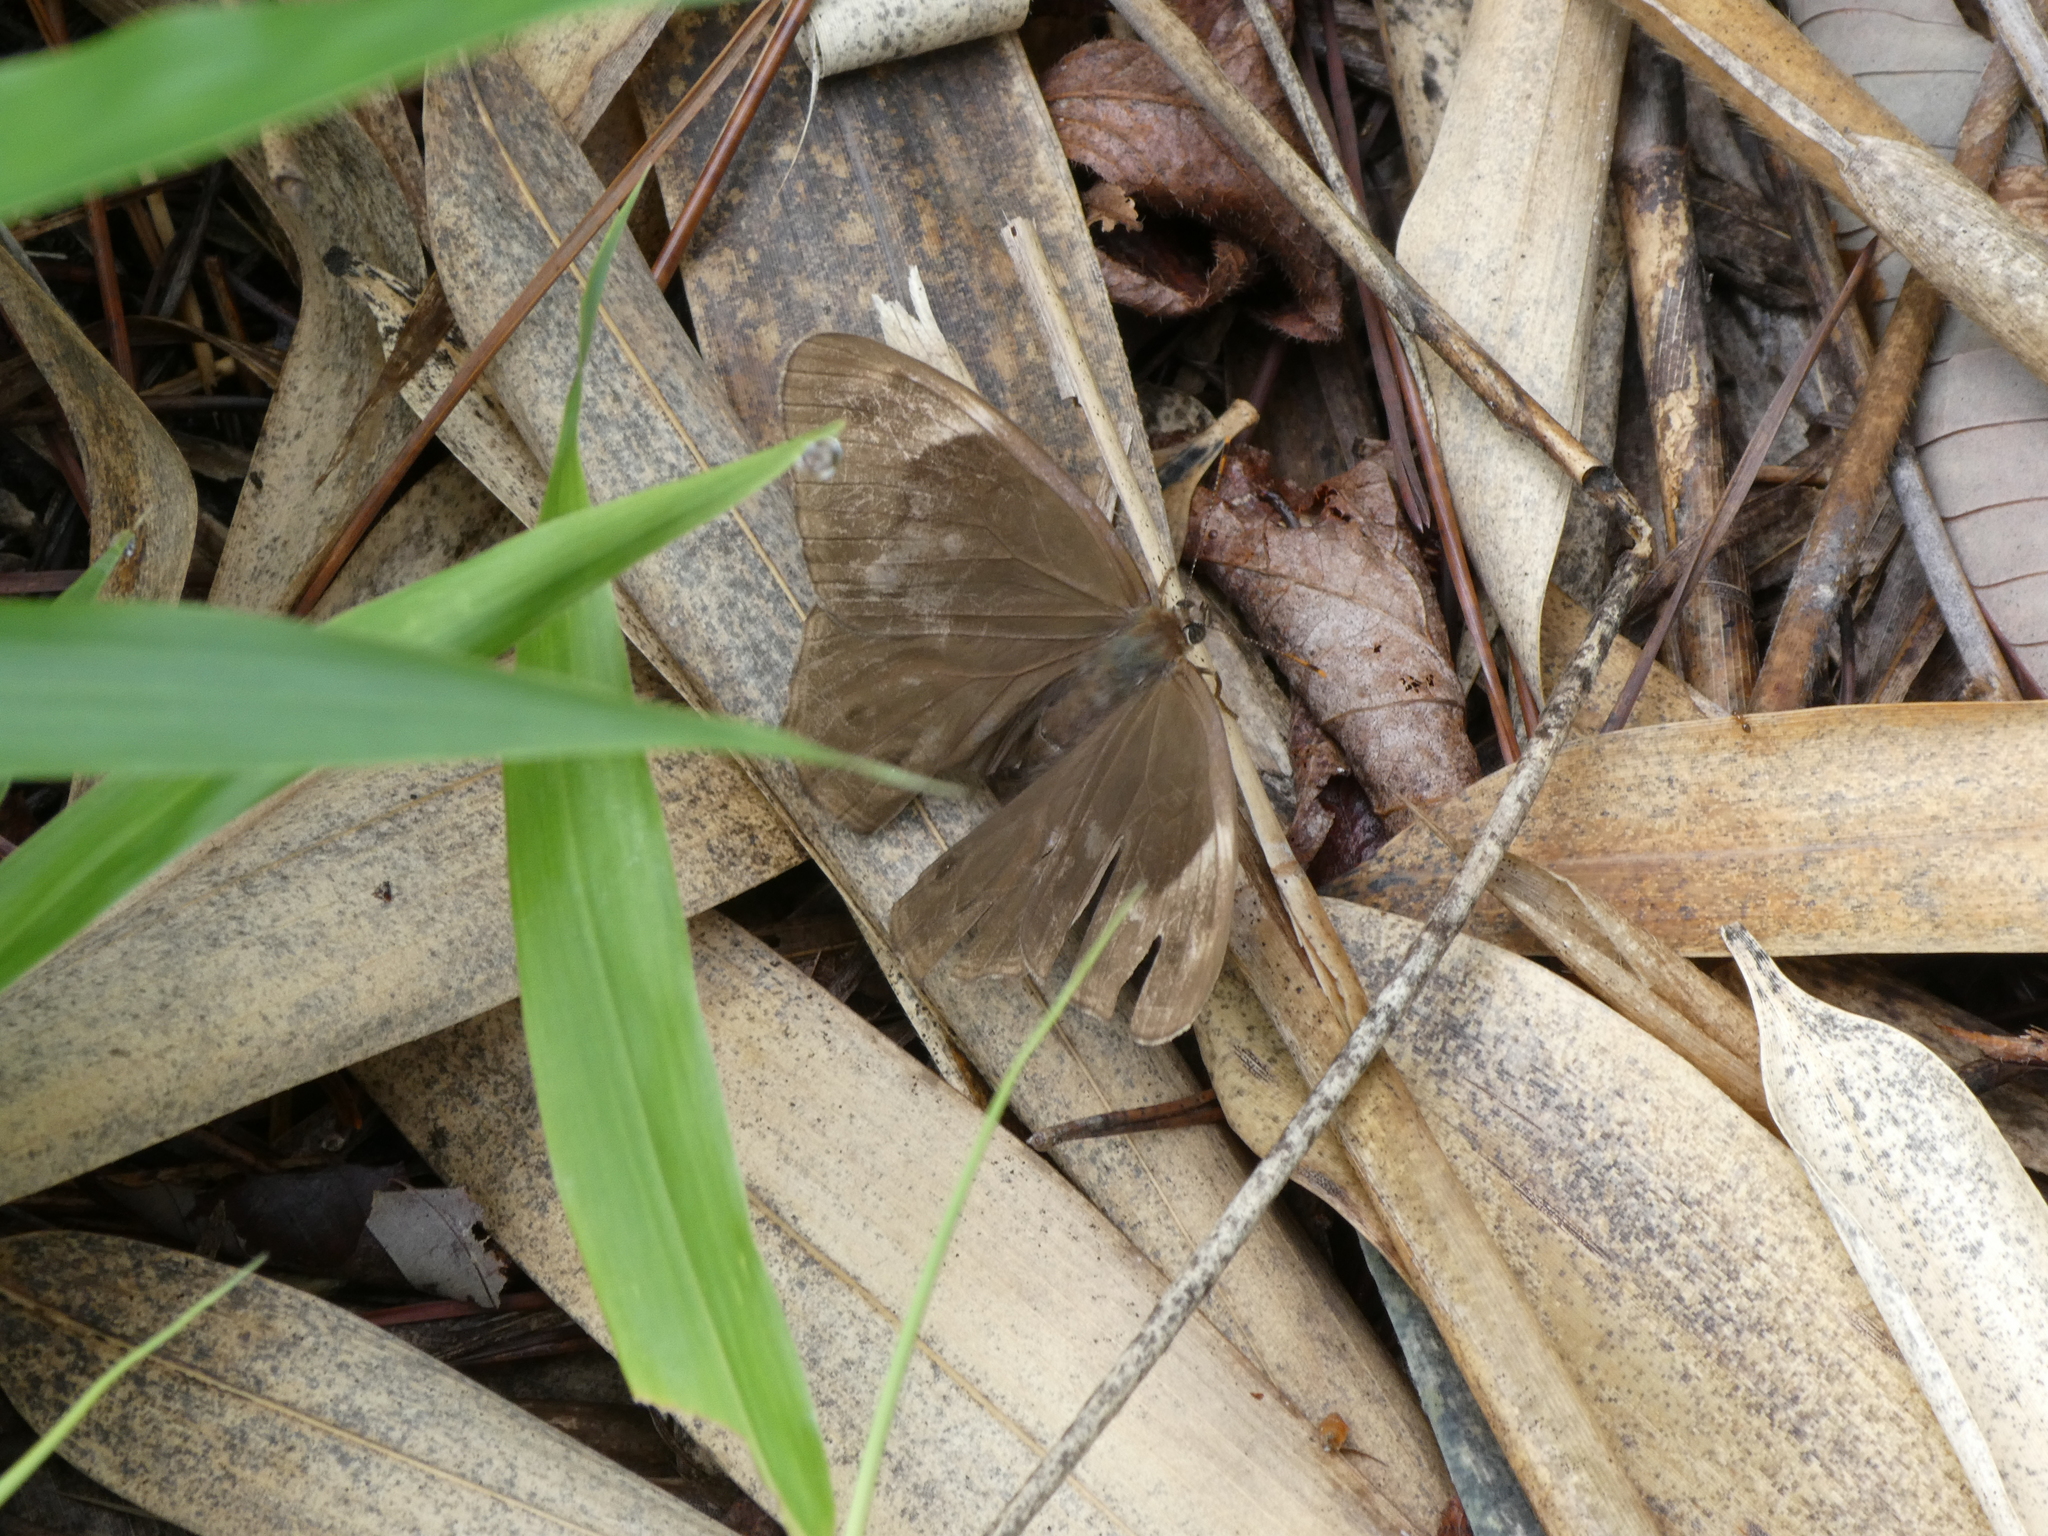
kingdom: Animalia
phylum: Arthropoda
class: Insecta
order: Lepidoptera
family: Nymphalidae
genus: Lethe
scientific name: Lethe diana
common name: Diana treebrown
